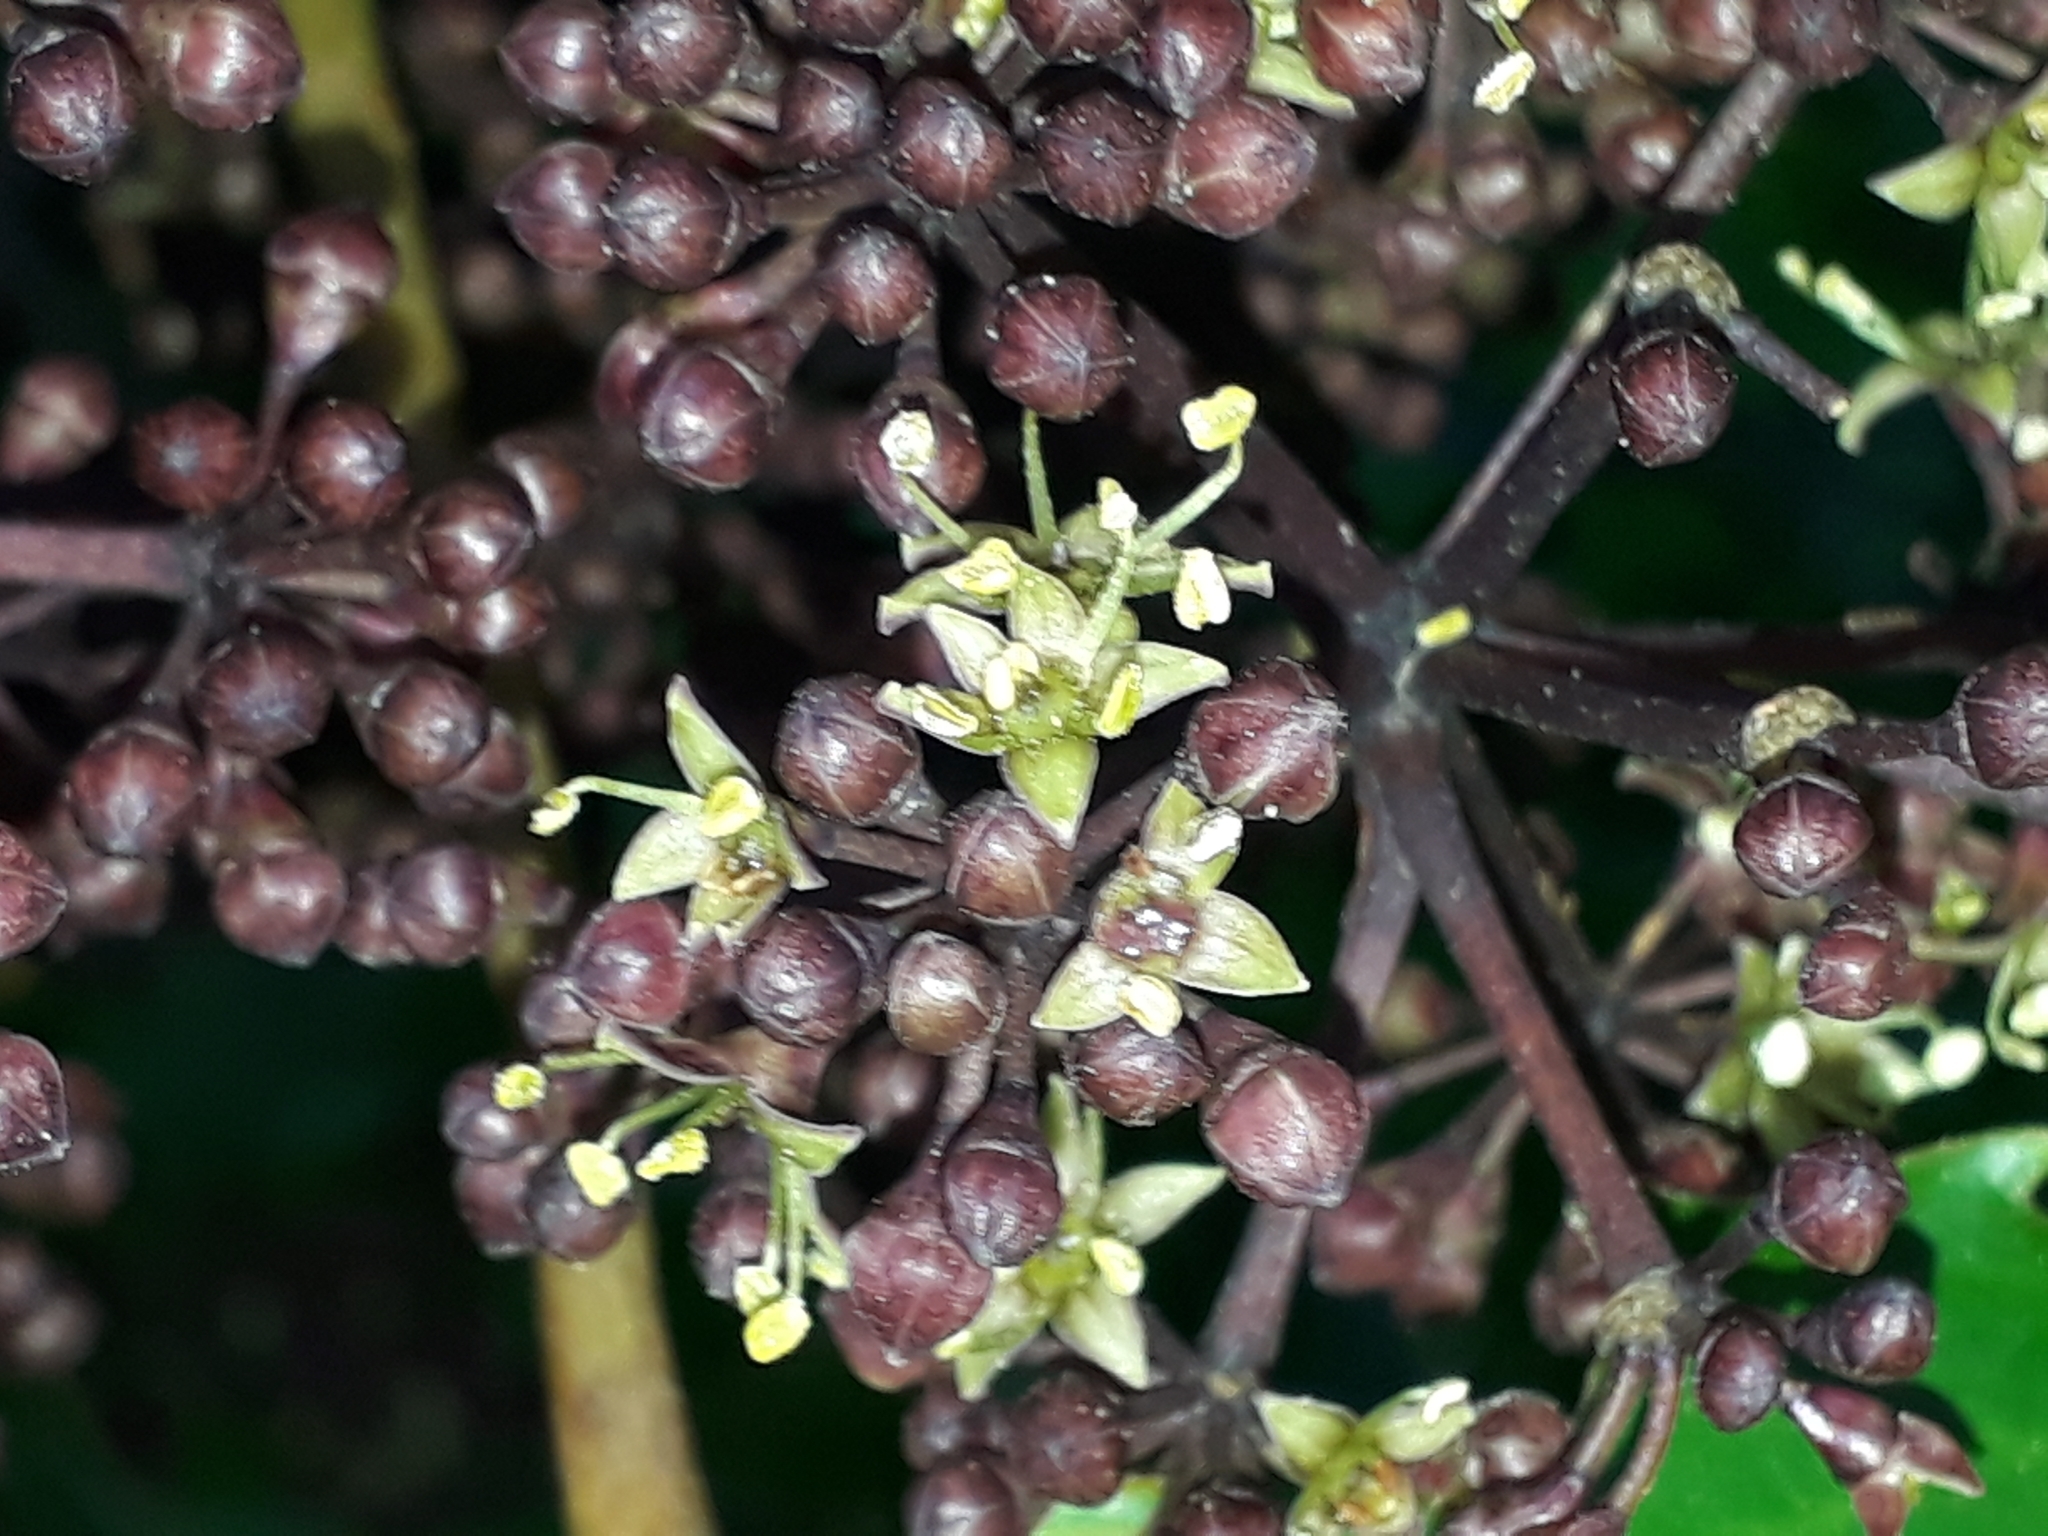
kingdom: Plantae
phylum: Tracheophyta
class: Magnoliopsida
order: Apiales
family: Araliaceae
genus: Neopanax
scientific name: Neopanax arboreus
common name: Five-fingers
